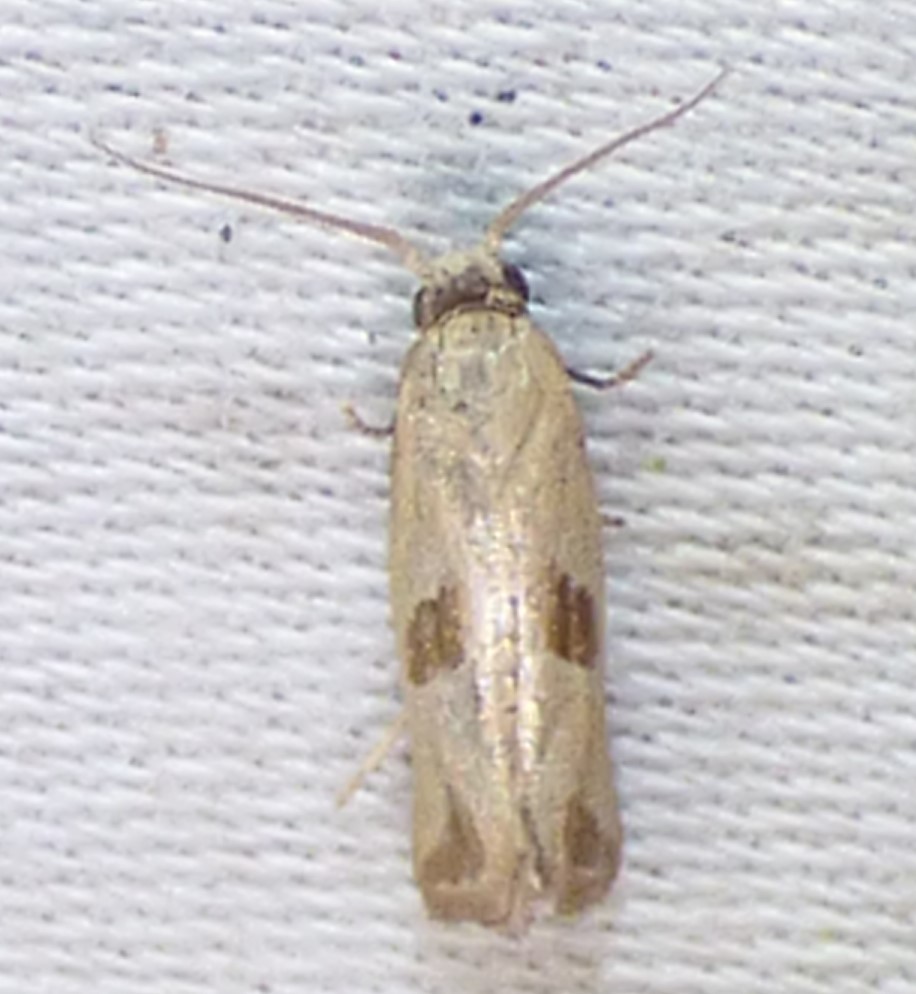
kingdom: Animalia
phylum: Arthropoda
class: Insecta
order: Lepidoptera
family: Tortricidae
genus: Eugnosta
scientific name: Eugnosta bimaculana
